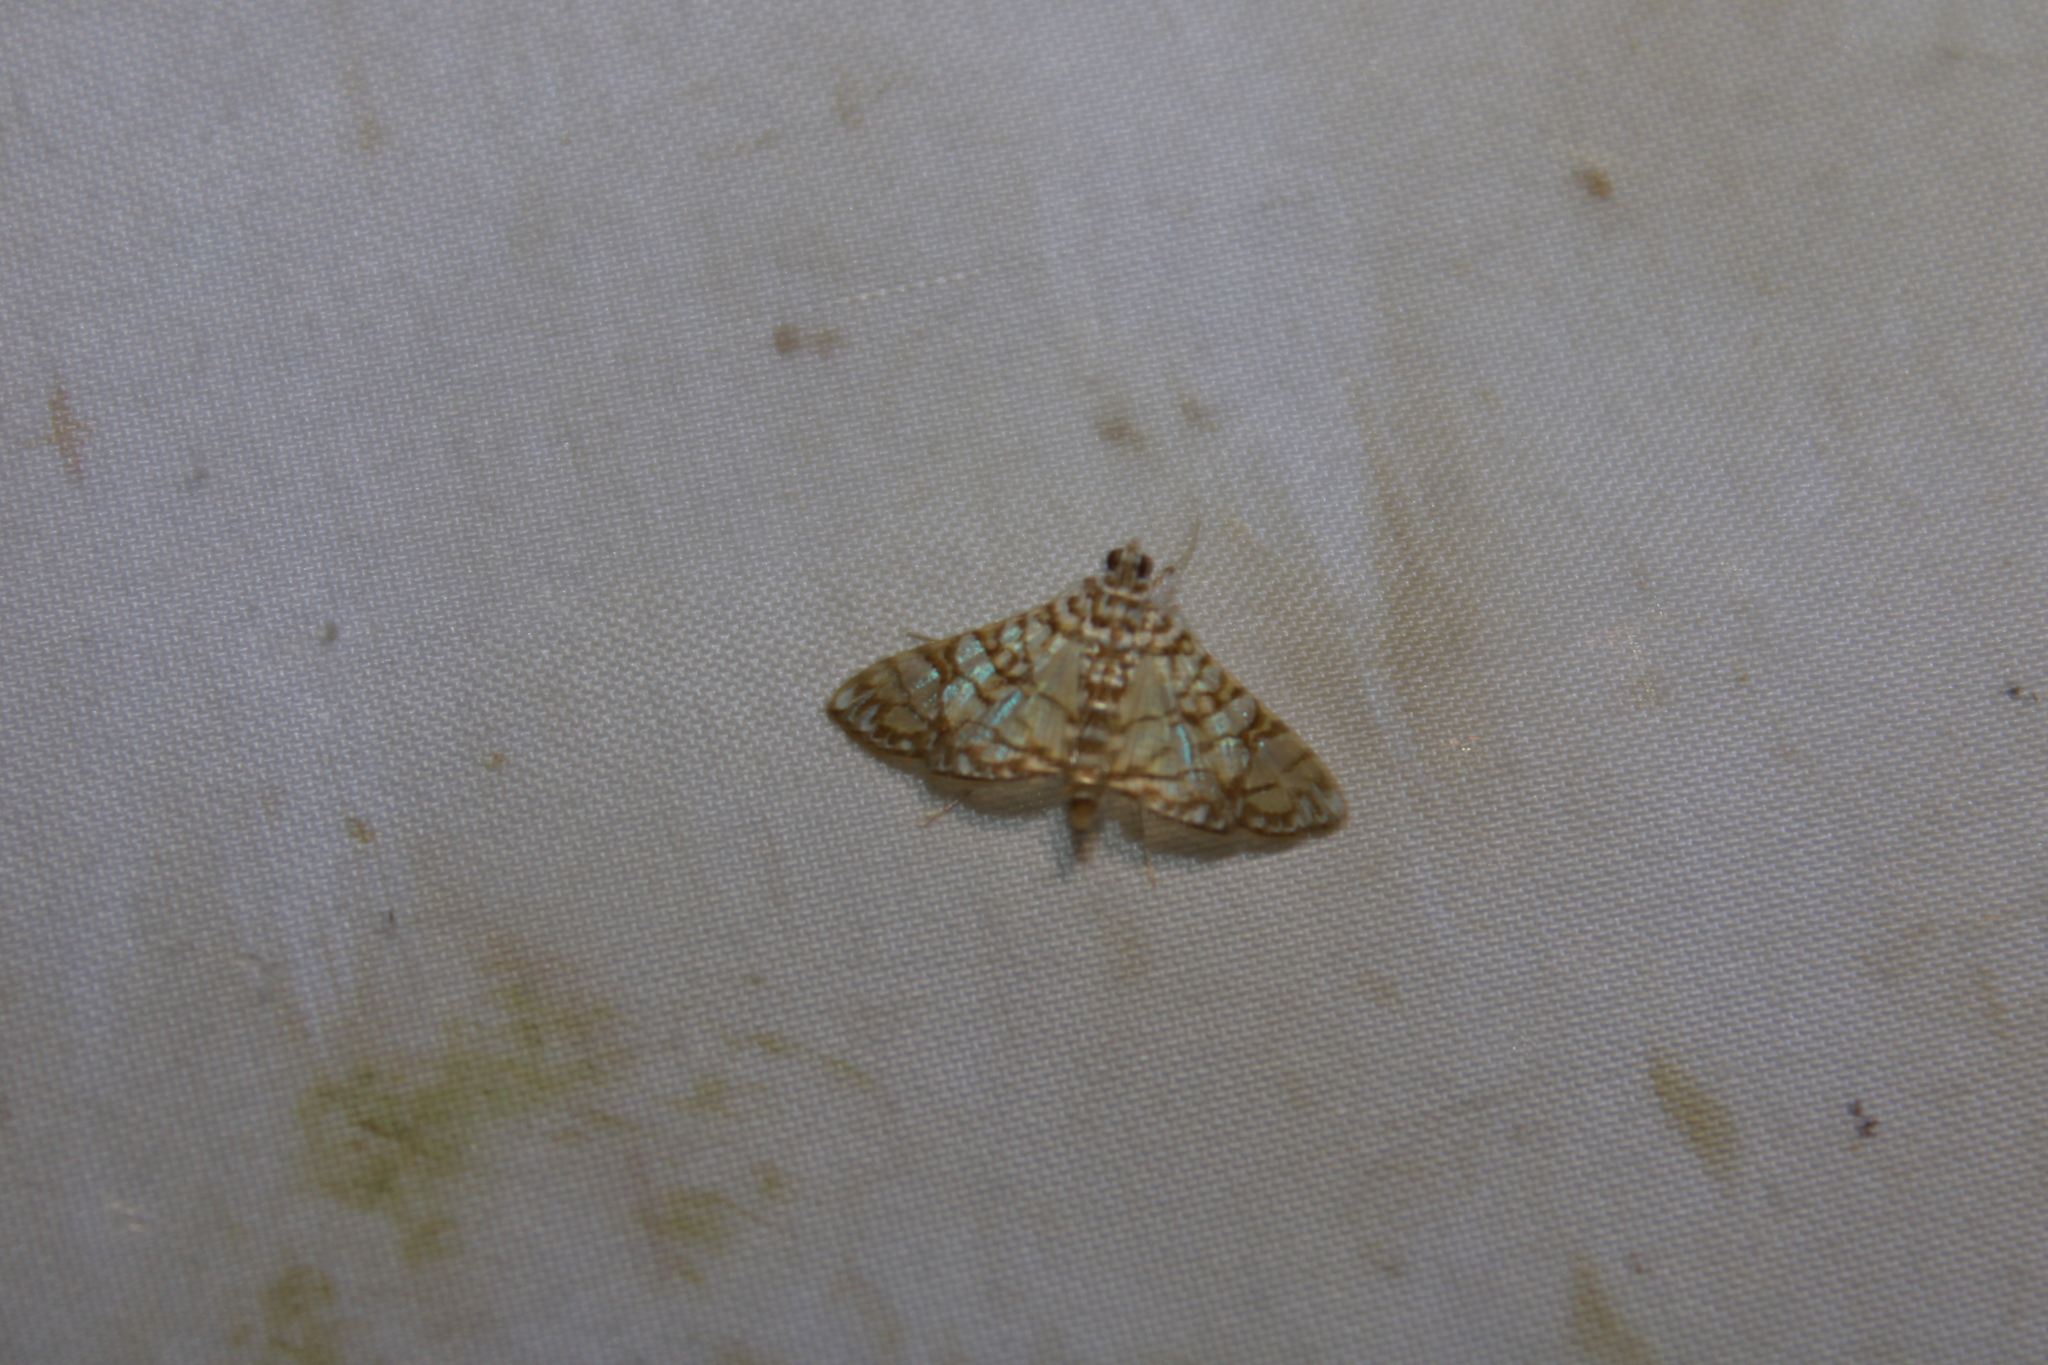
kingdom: Animalia
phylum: Arthropoda
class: Insecta
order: Lepidoptera
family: Crambidae
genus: Synclera
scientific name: Synclera traducalis
